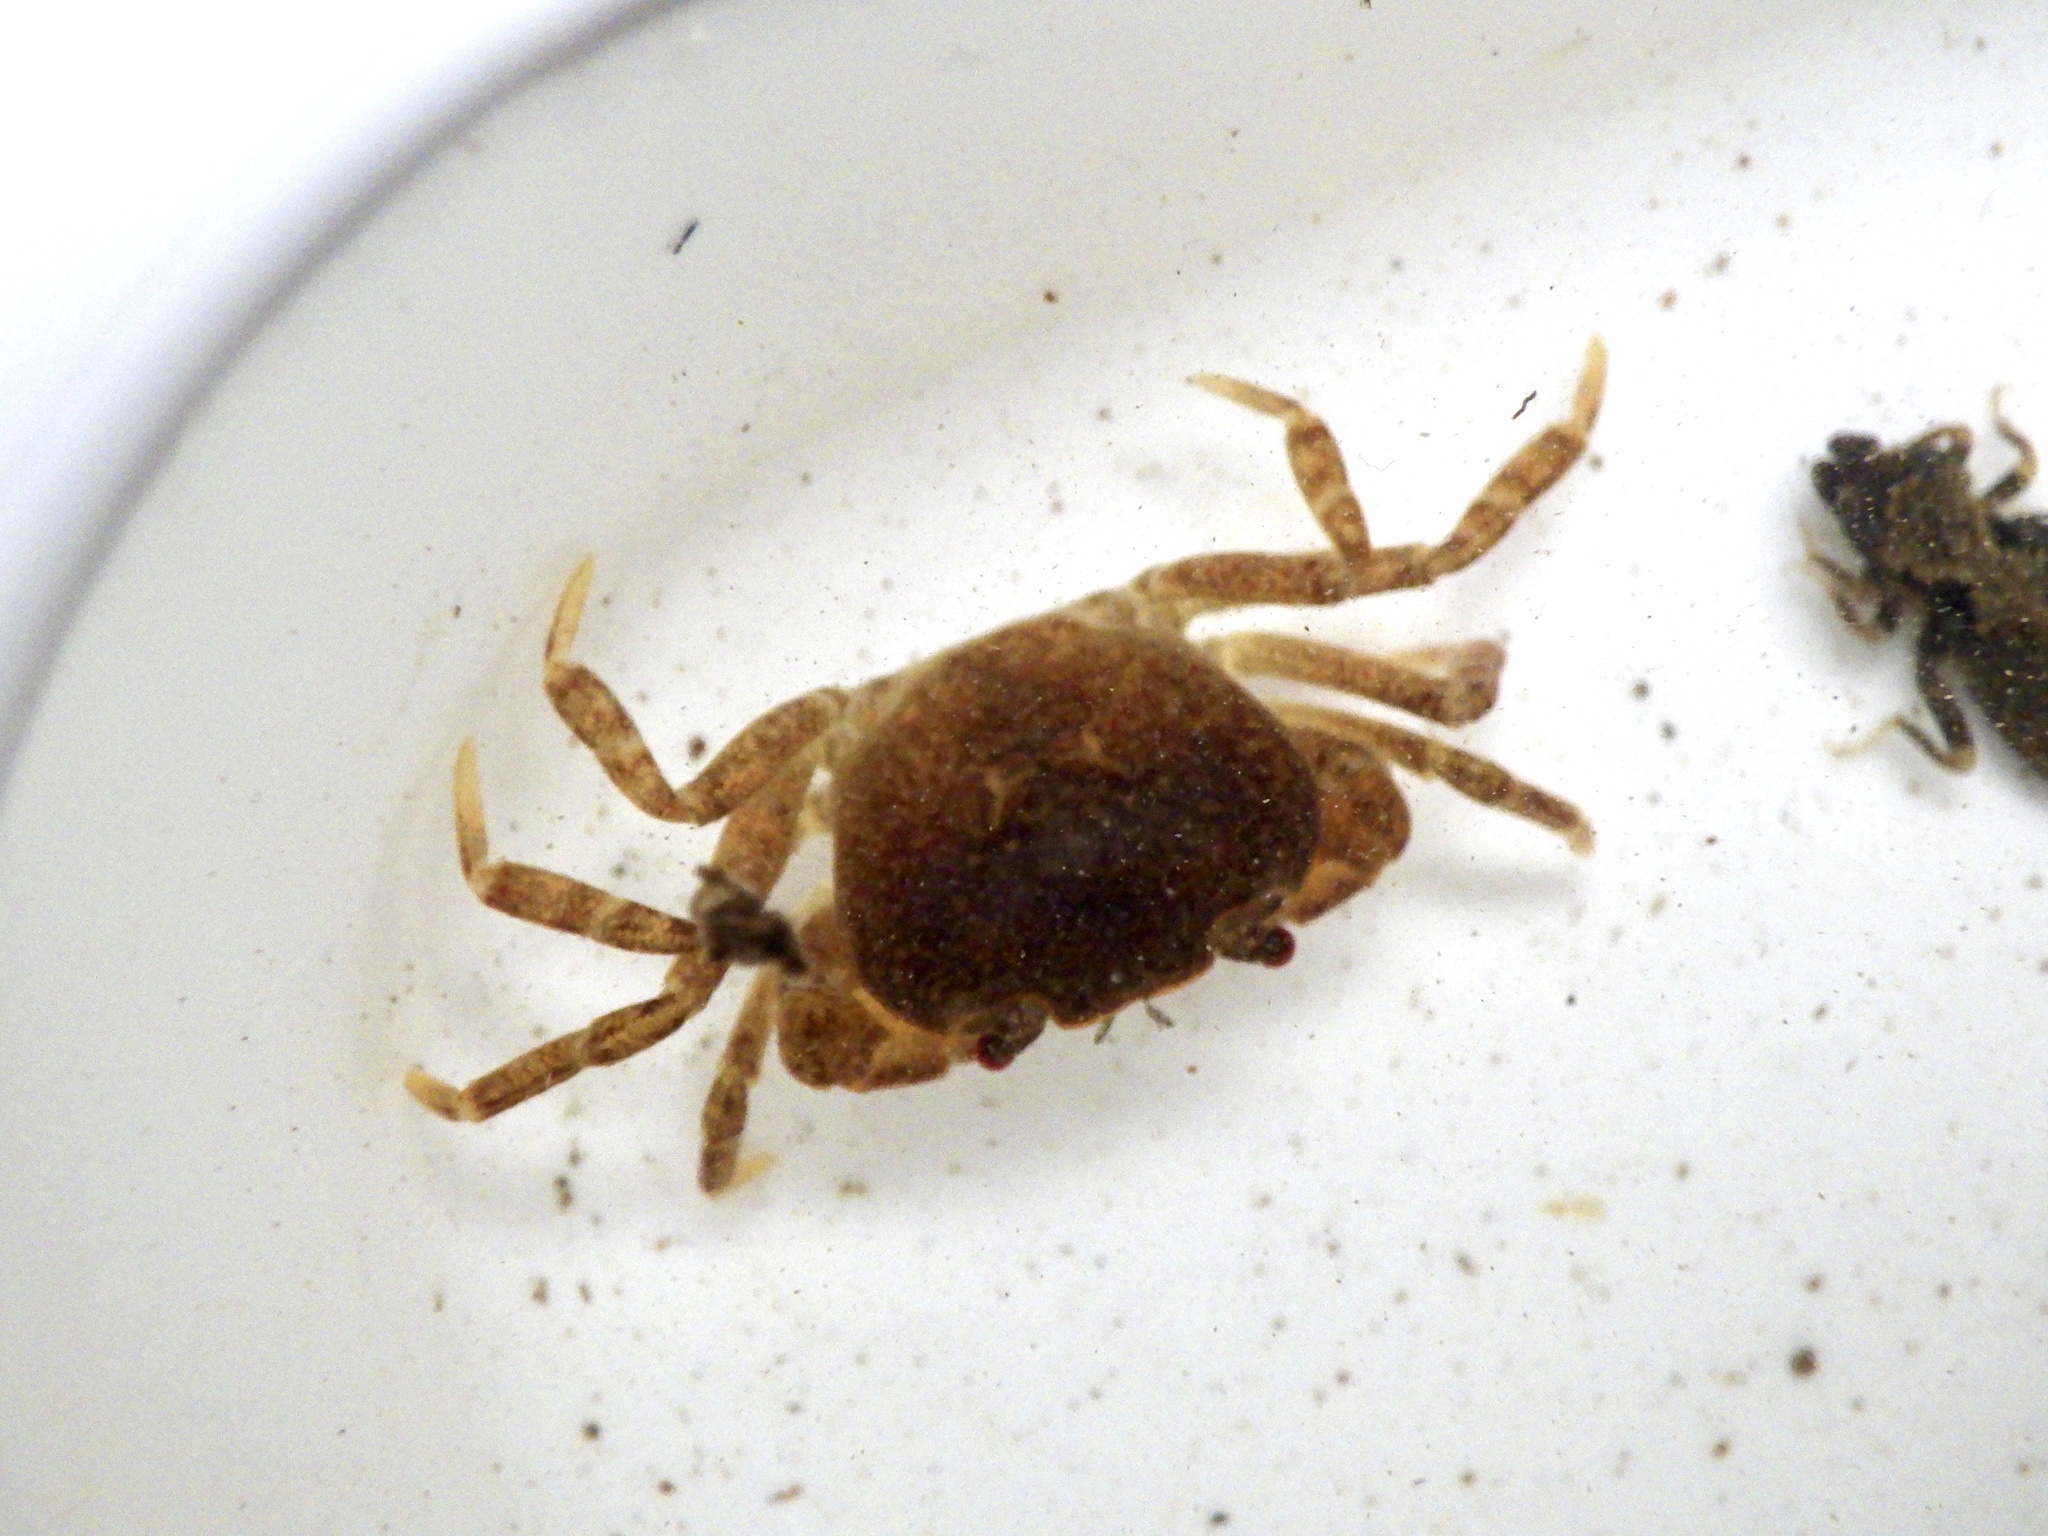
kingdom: Animalia
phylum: Arthropoda
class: Malacostraca
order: Decapoda
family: Potamidae
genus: Geothelphusa
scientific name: Geothelphusa dehaani
